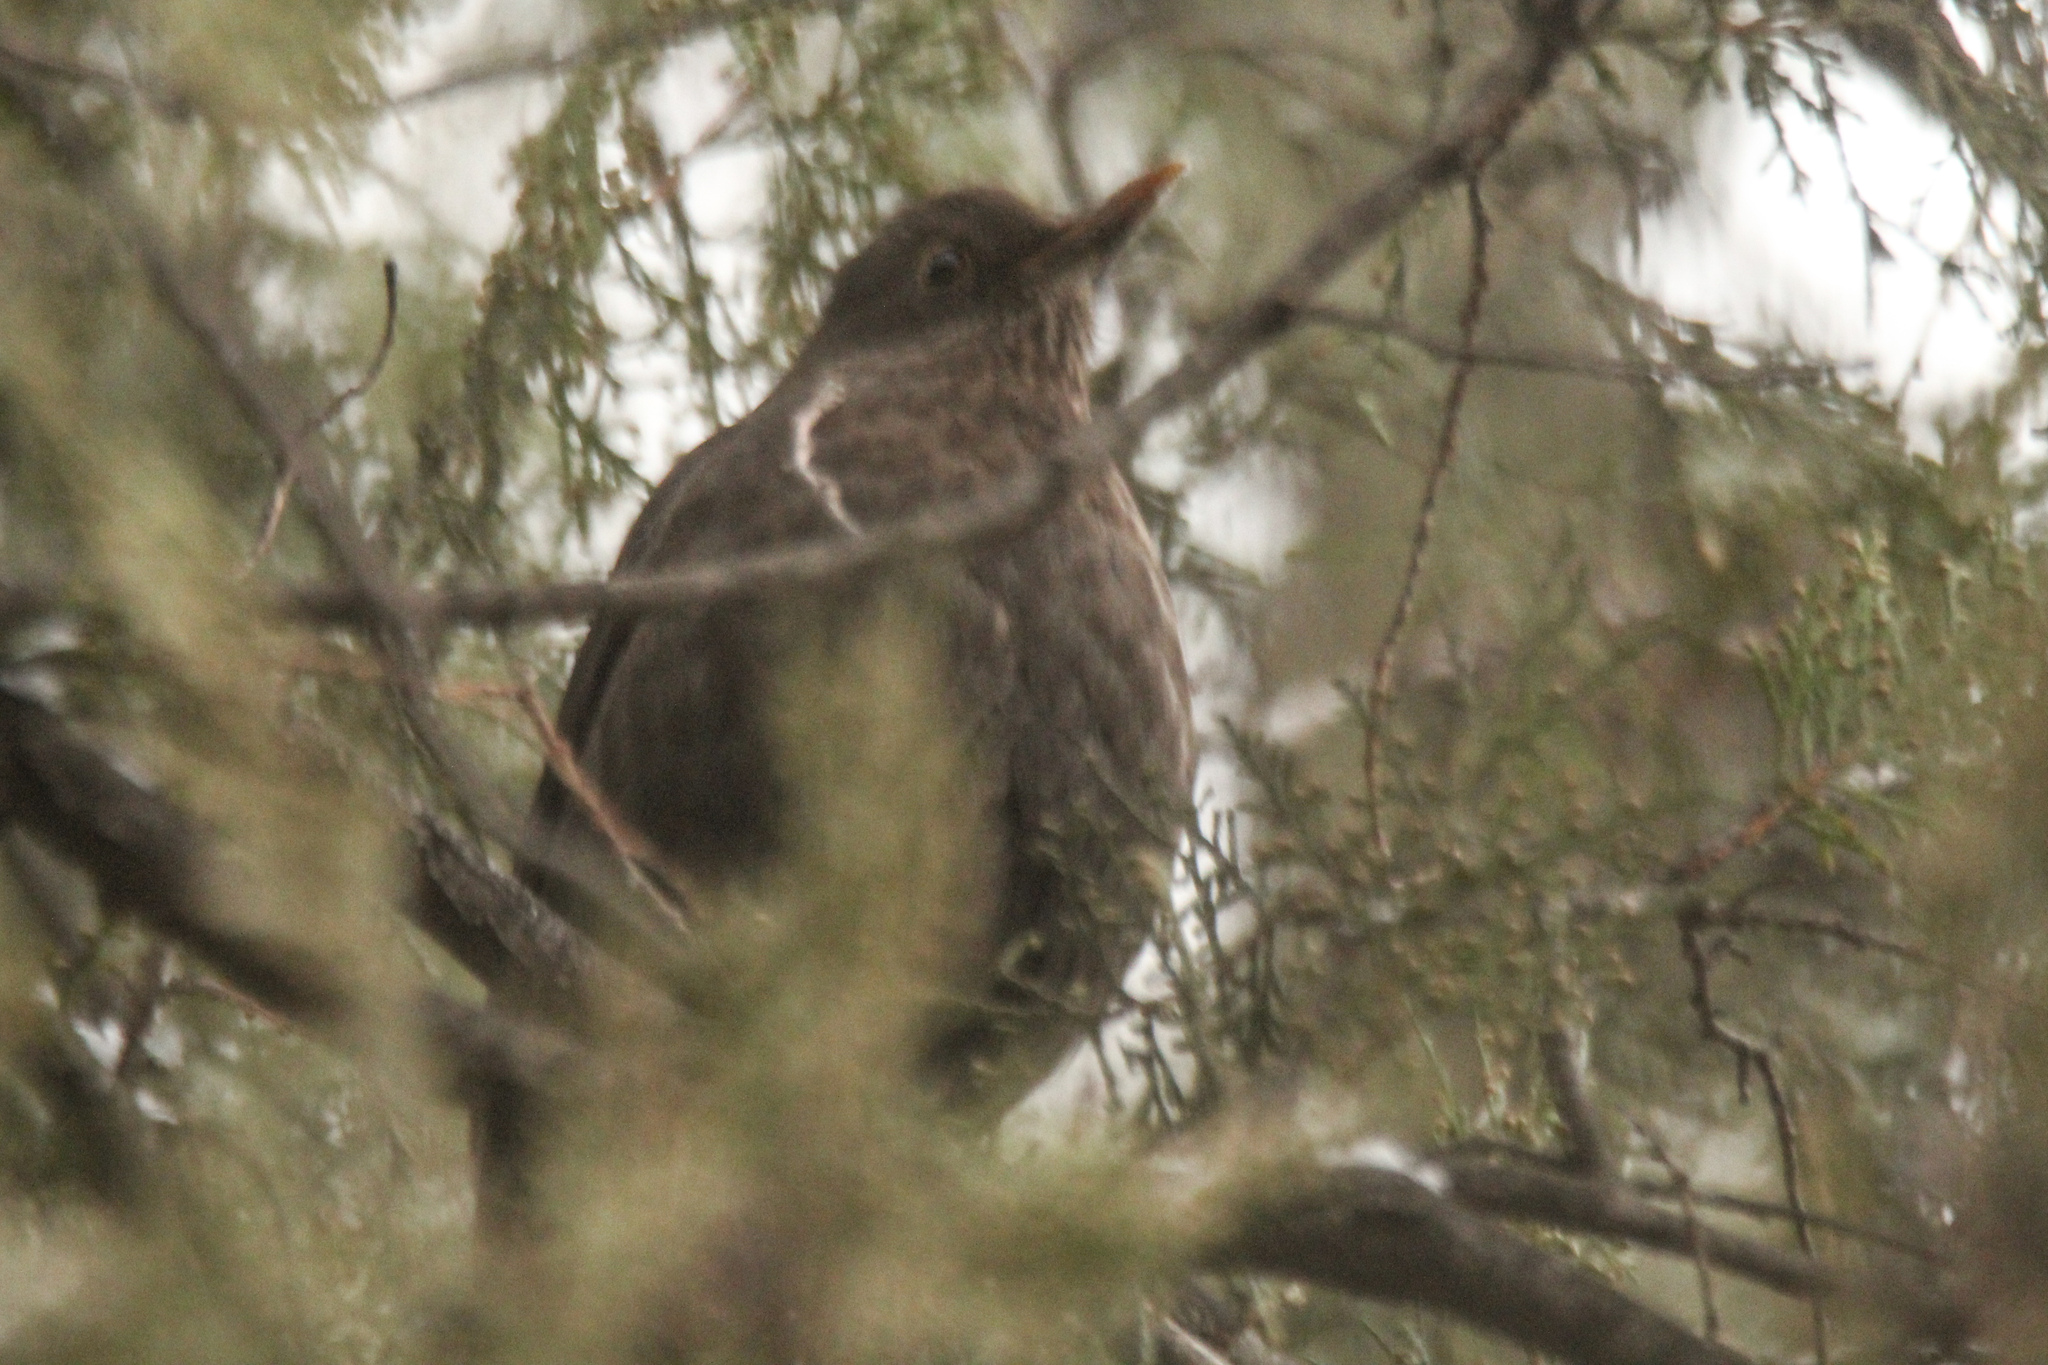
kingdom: Animalia
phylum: Chordata
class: Aves
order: Passeriformes
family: Turdidae
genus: Turdus
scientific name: Turdus merula
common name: Common blackbird
